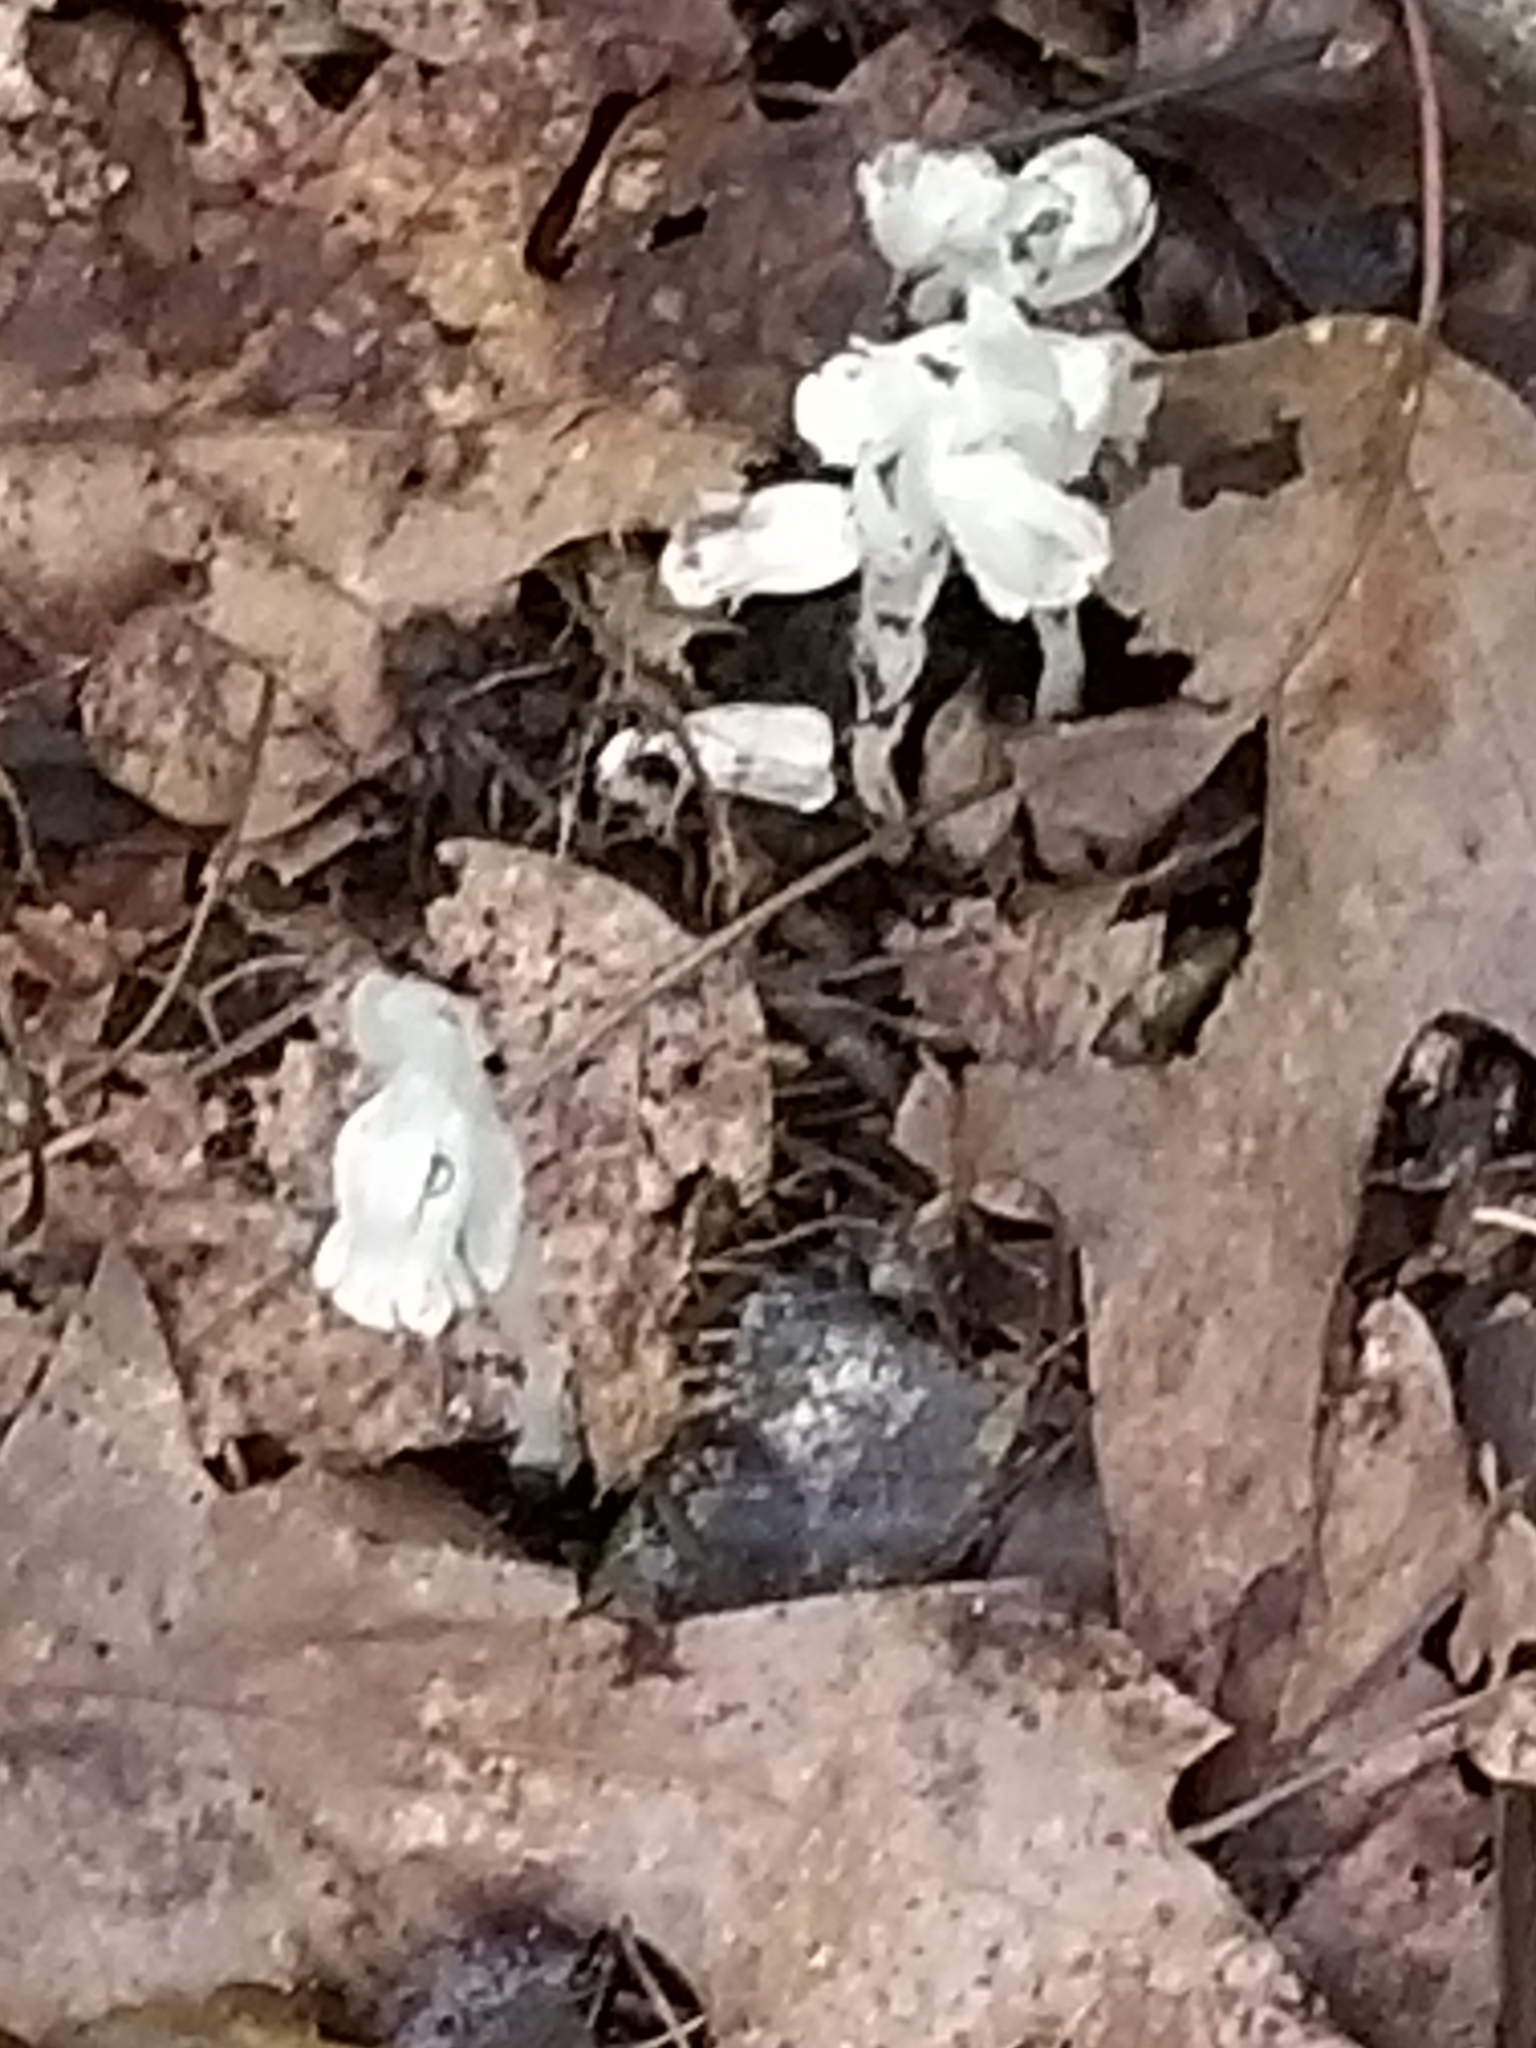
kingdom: Plantae
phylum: Tracheophyta
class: Magnoliopsida
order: Ericales
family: Ericaceae
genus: Monotropa
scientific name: Monotropa uniflora
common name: Convulsion root
